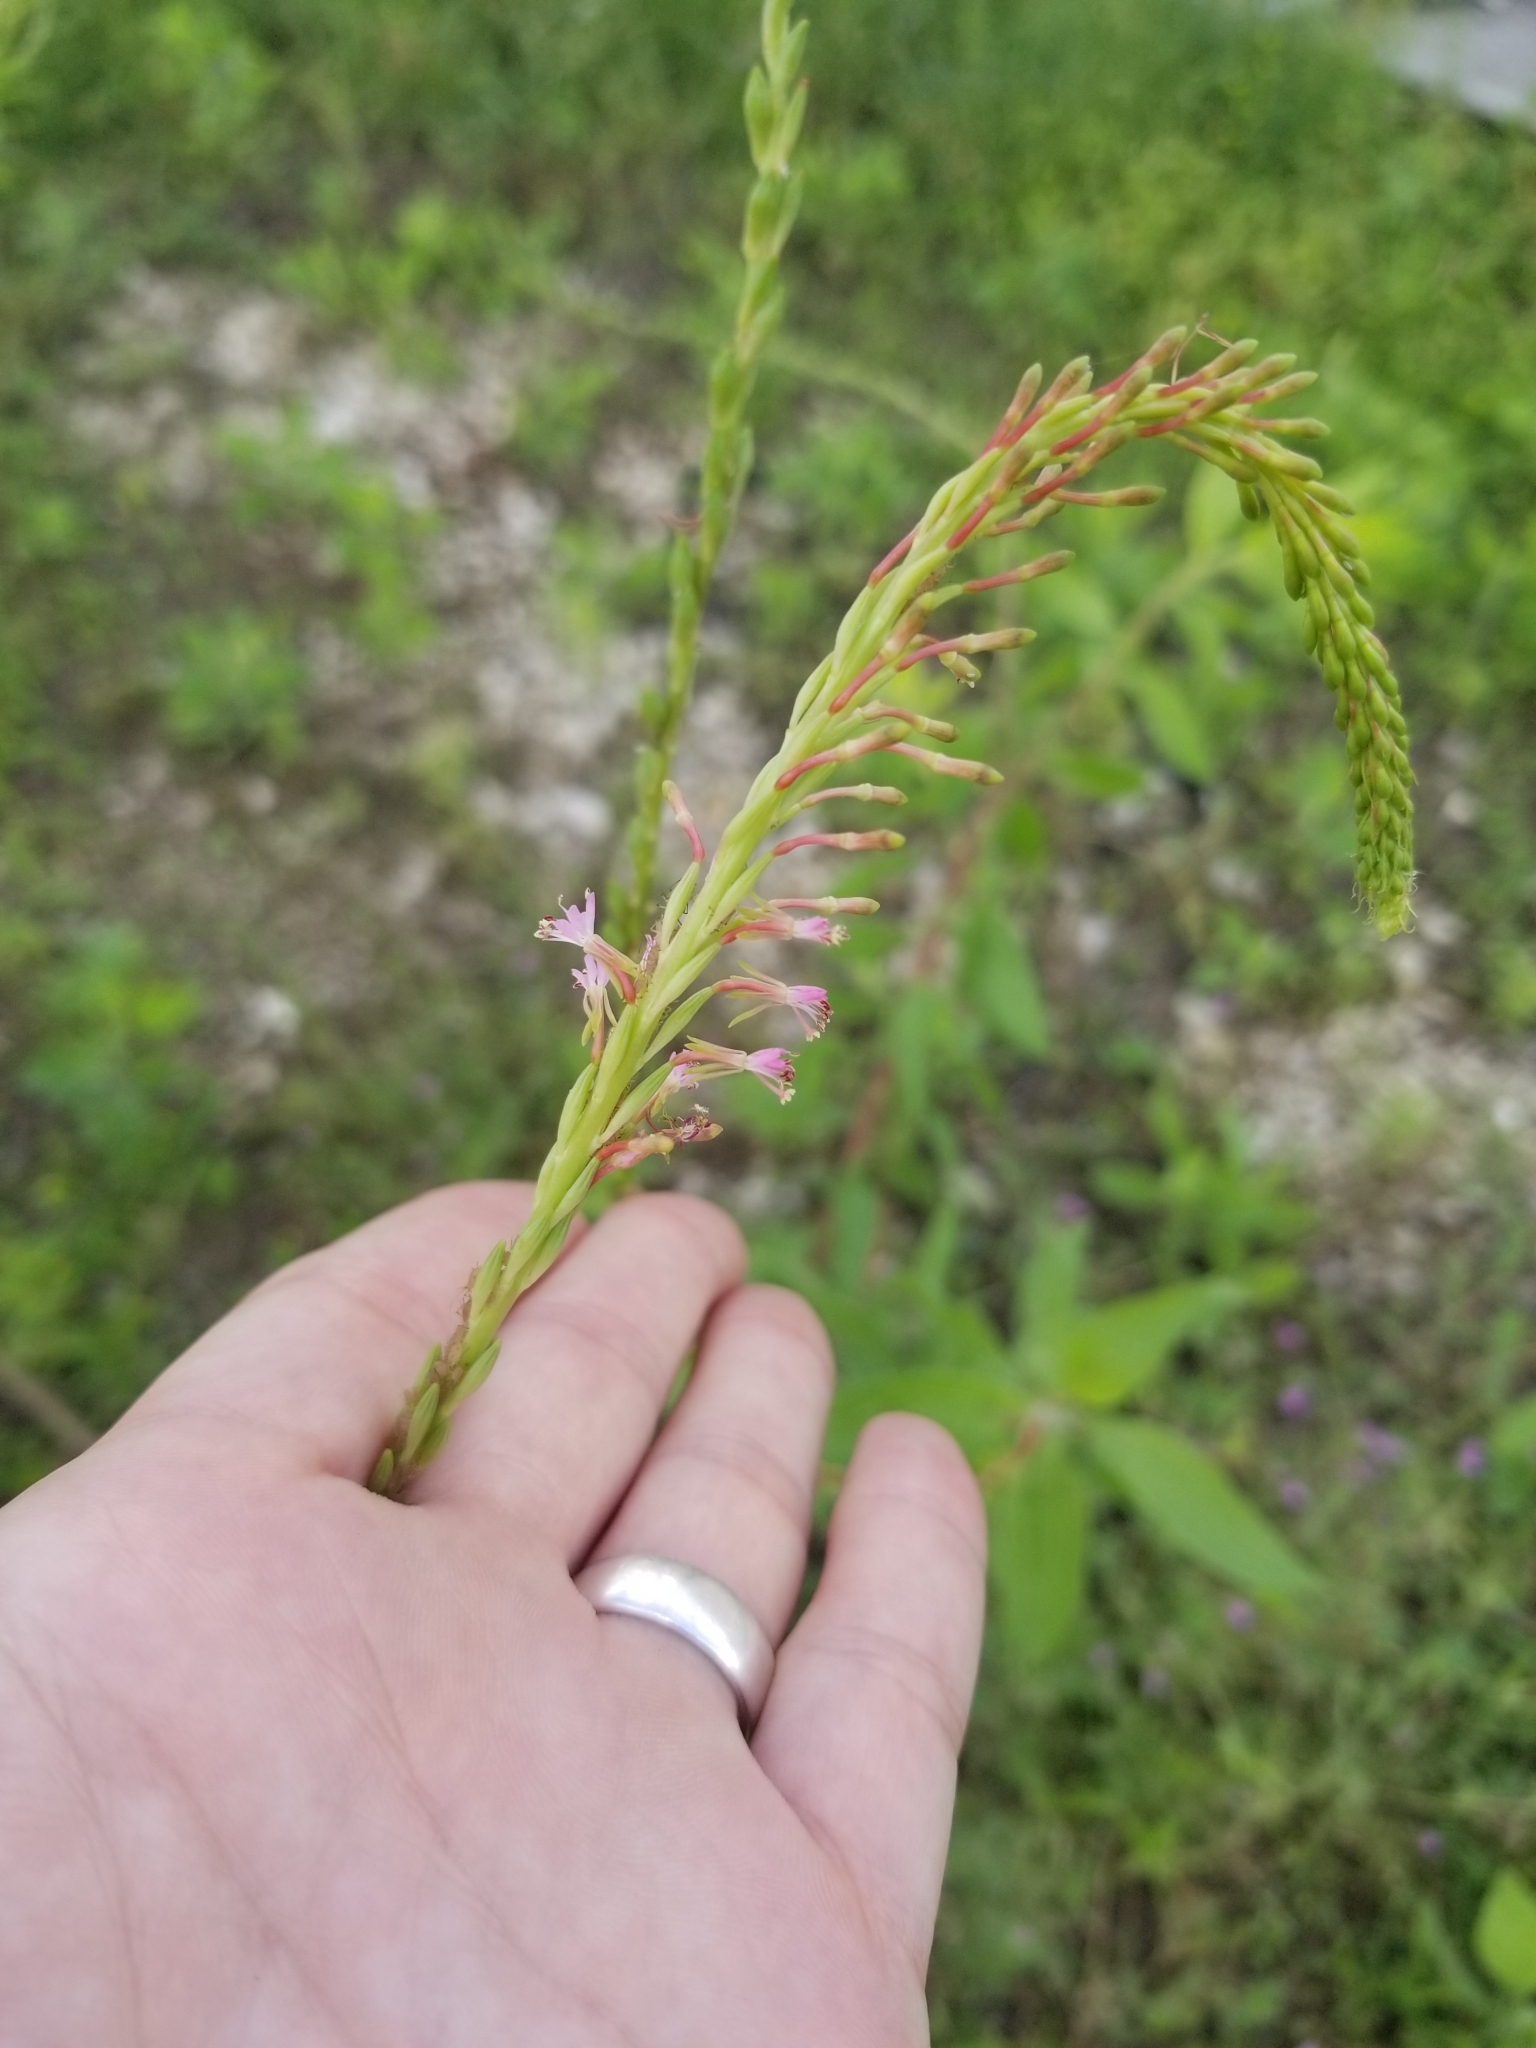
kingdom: Plantae
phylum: Tracheophyta
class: Magnoliopsida
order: Myrtales
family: Onagraceae
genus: Oenothera
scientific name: Oenothera curtiflora
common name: Velvetweed
